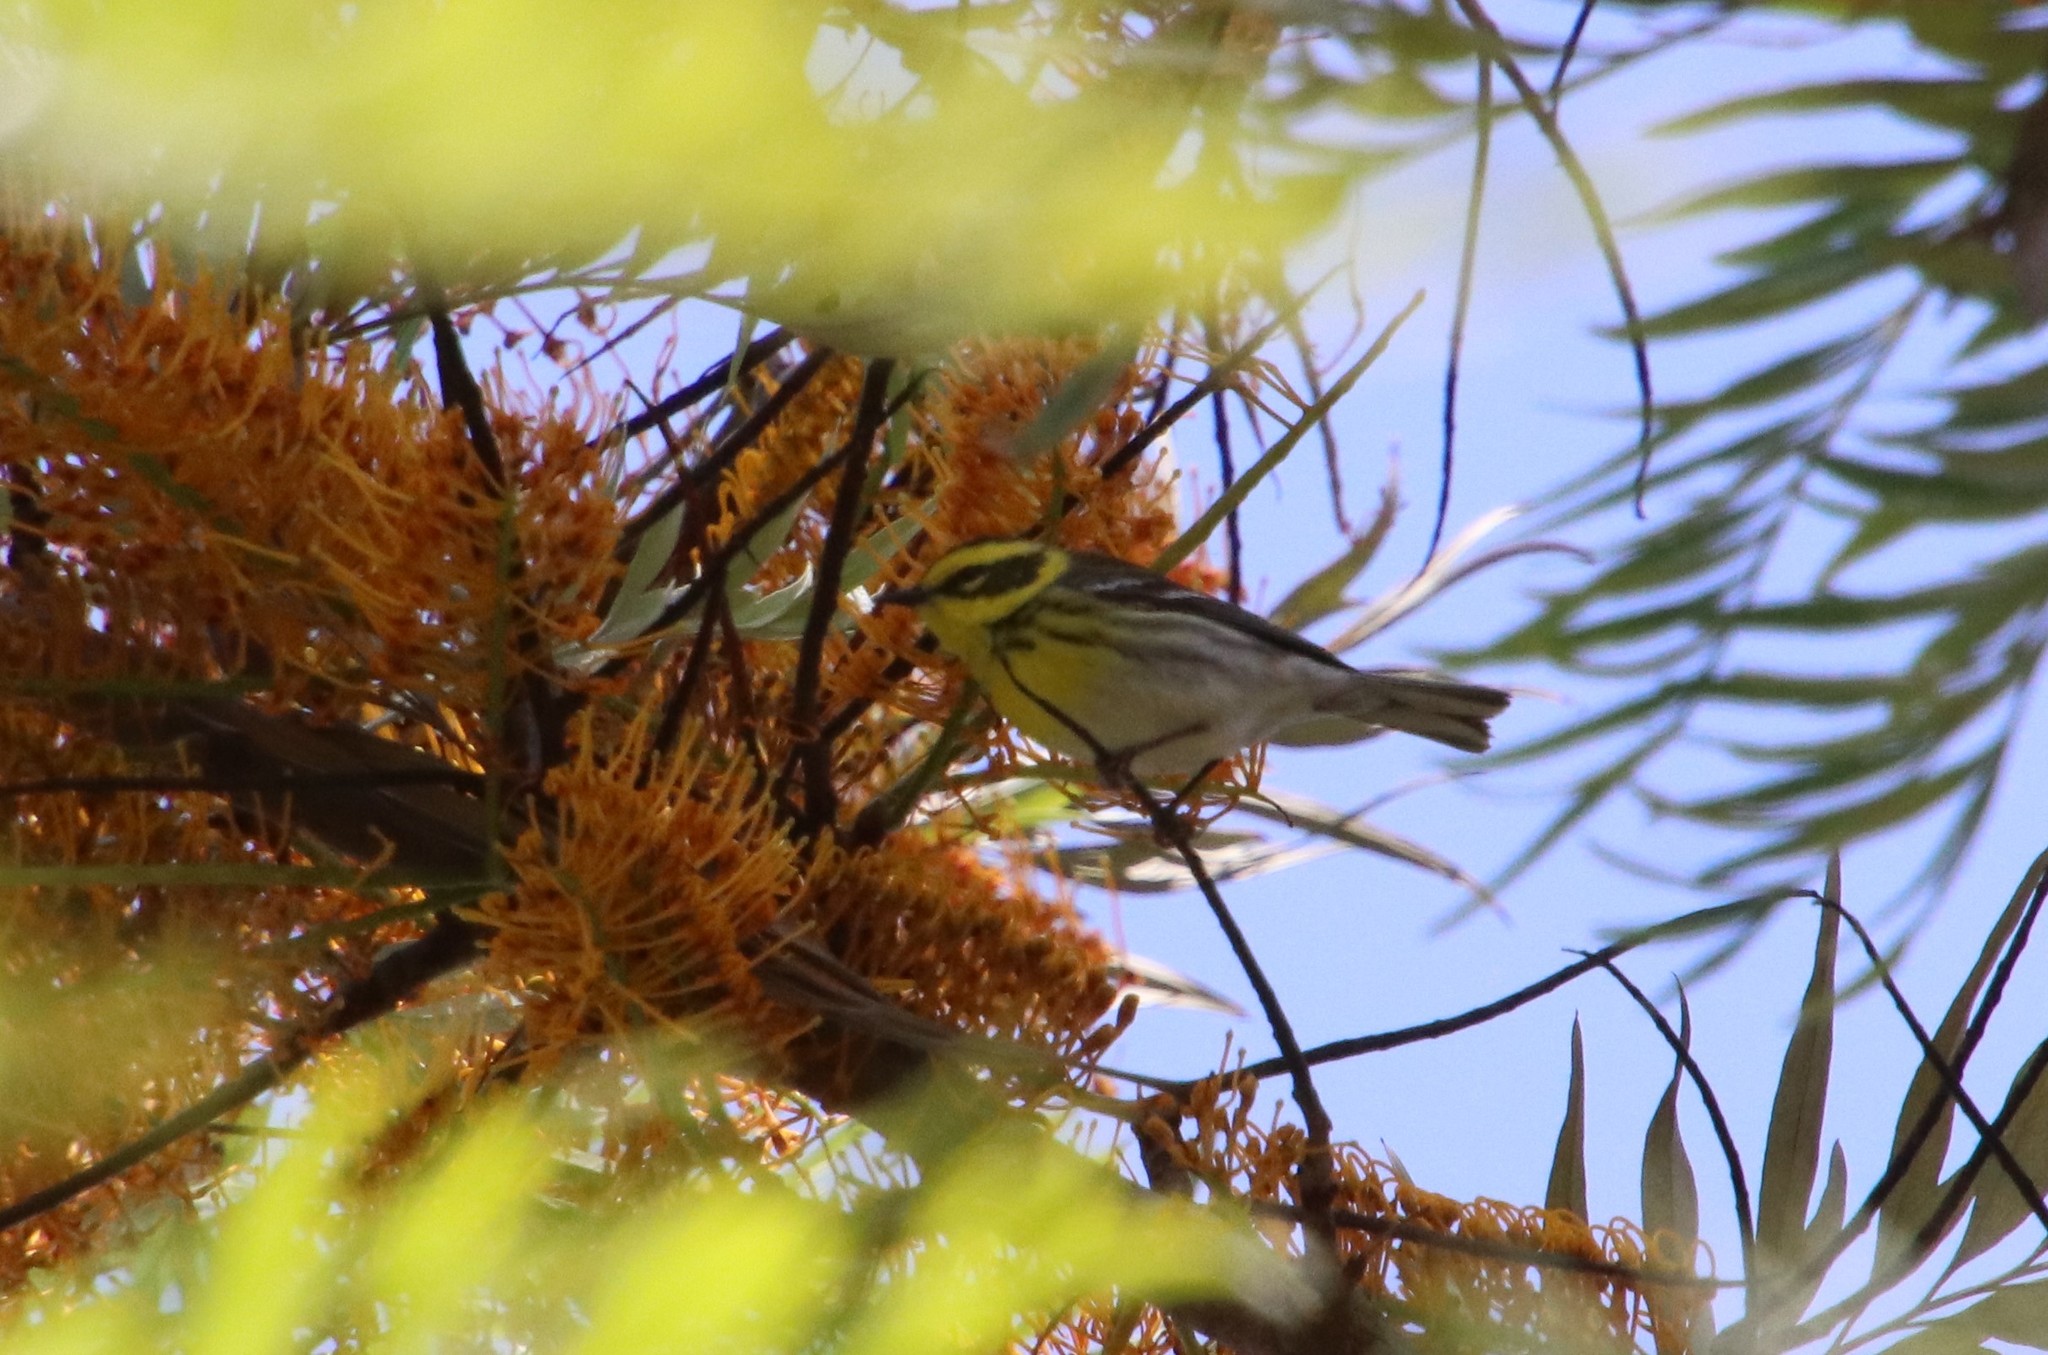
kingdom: Animalia
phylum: Chordata
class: Aves
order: Passeriformes
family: Parulidae
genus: Setophaga
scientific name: Setophaga townsendi
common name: Townsend's warbler
